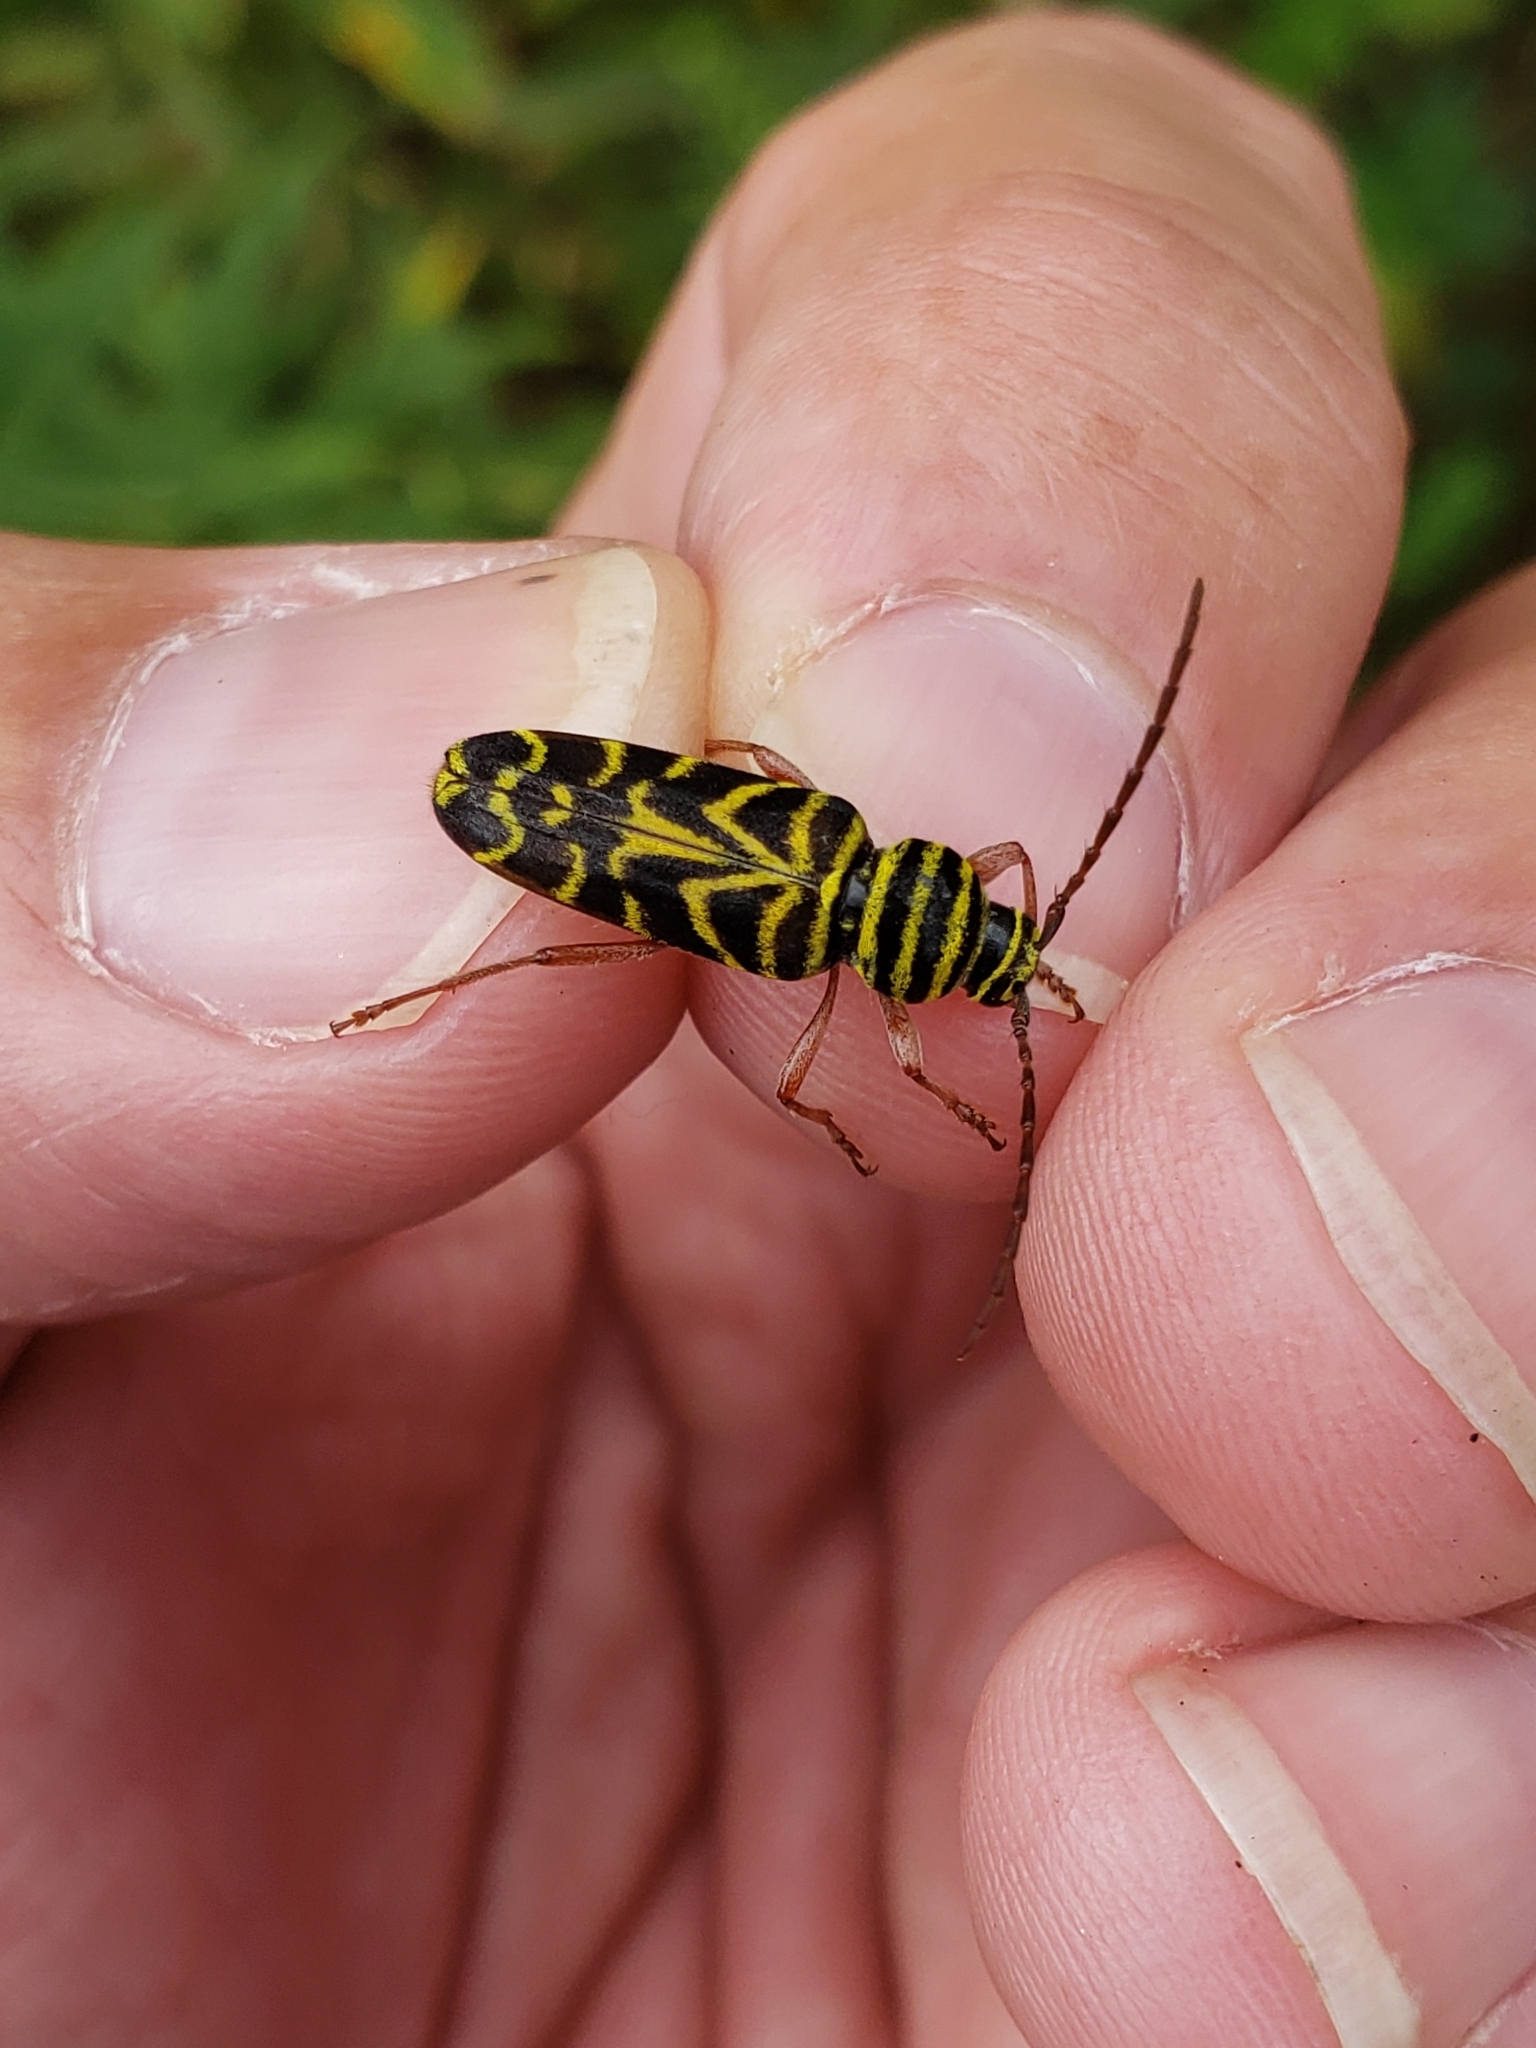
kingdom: Animalia
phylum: Arthropoda
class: Insecta
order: Coleoptera
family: Cerambycidae
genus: Megacyllene
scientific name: Megacyllene robiniae
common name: Locust borer
